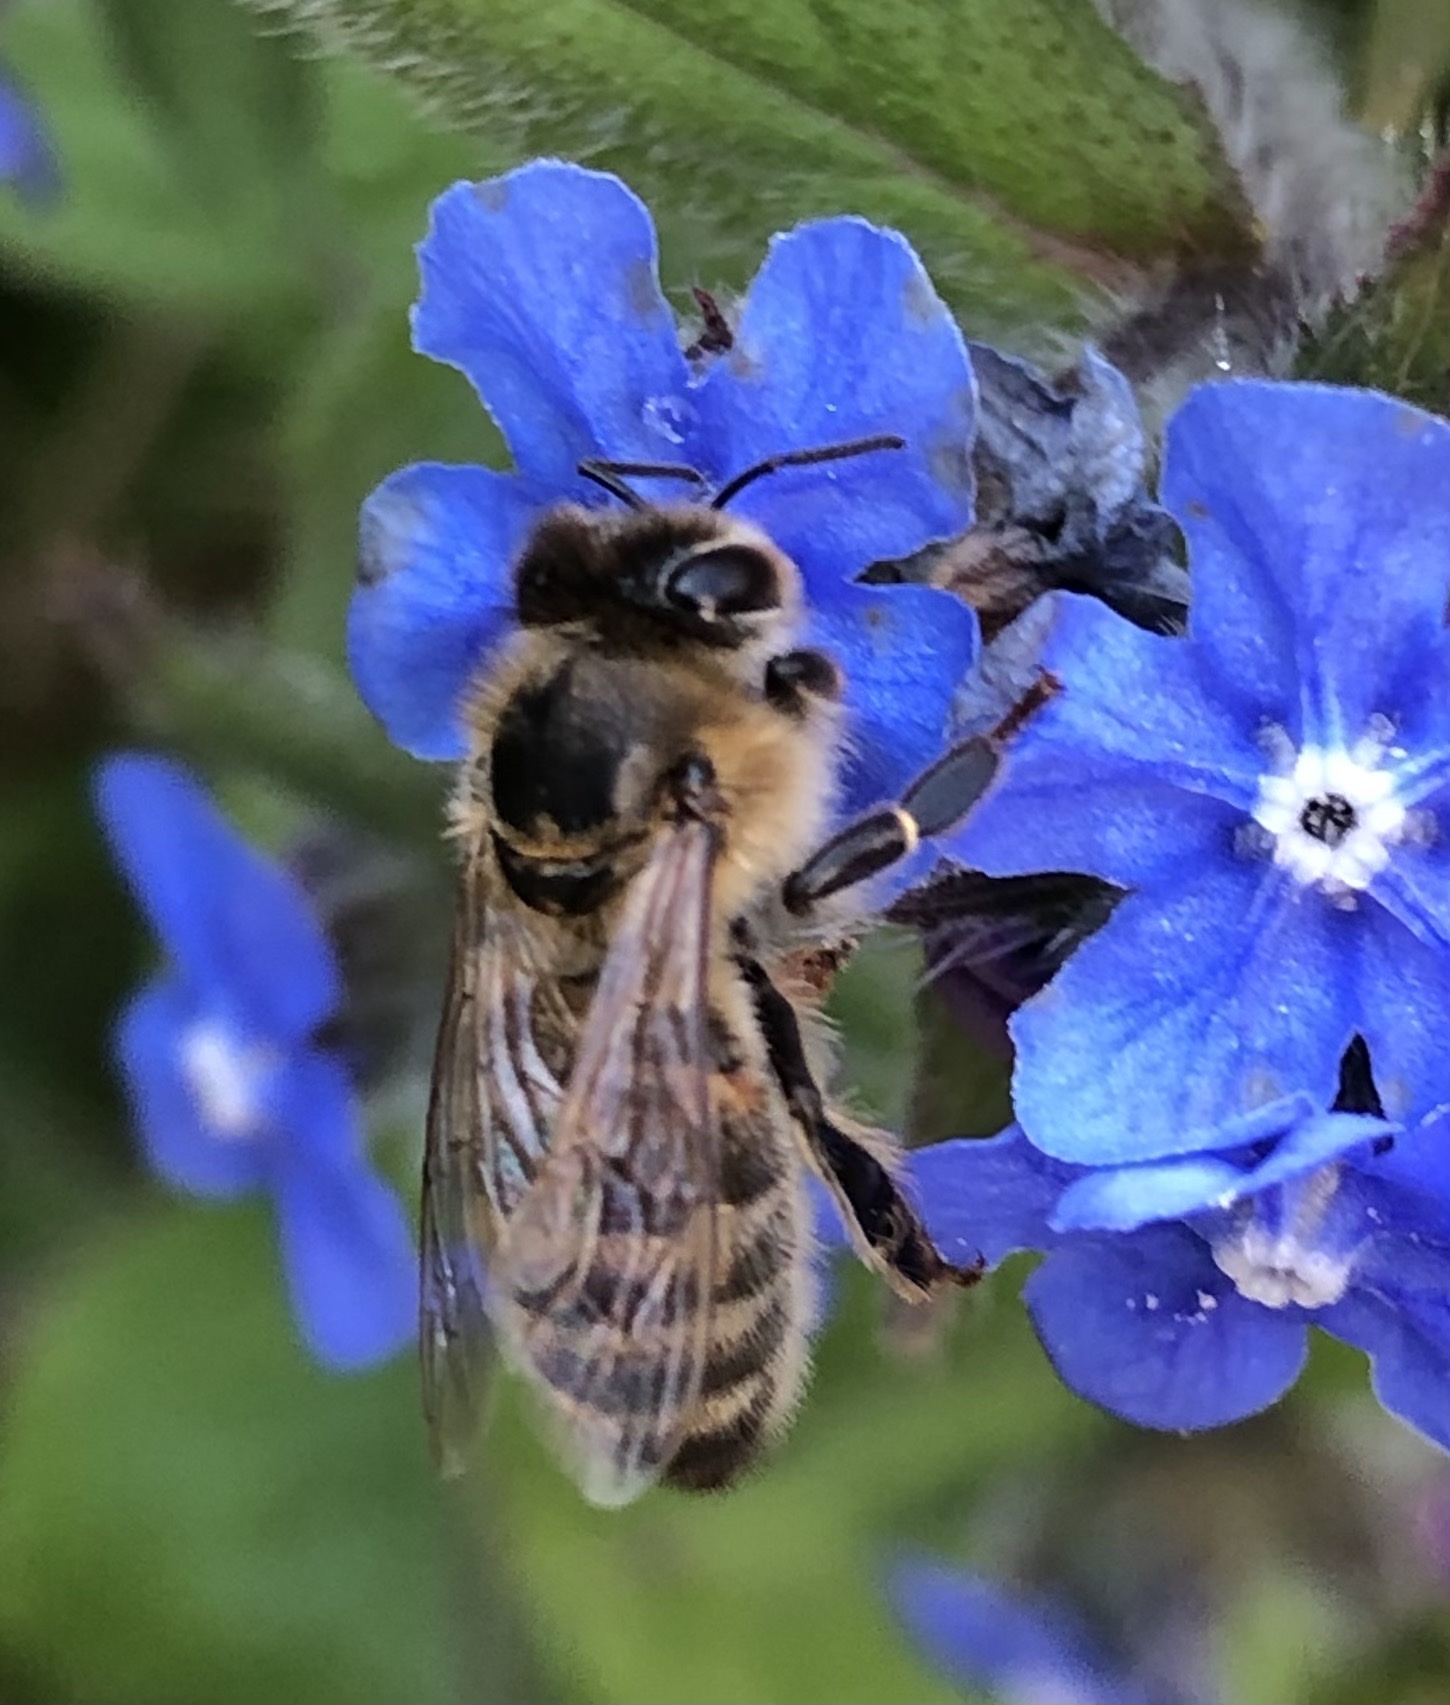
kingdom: Animalia
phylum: Arthropoda
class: Insecta
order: Hymenoptera
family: Apidae
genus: Apis
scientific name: Apis mellifera
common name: Honey bee
